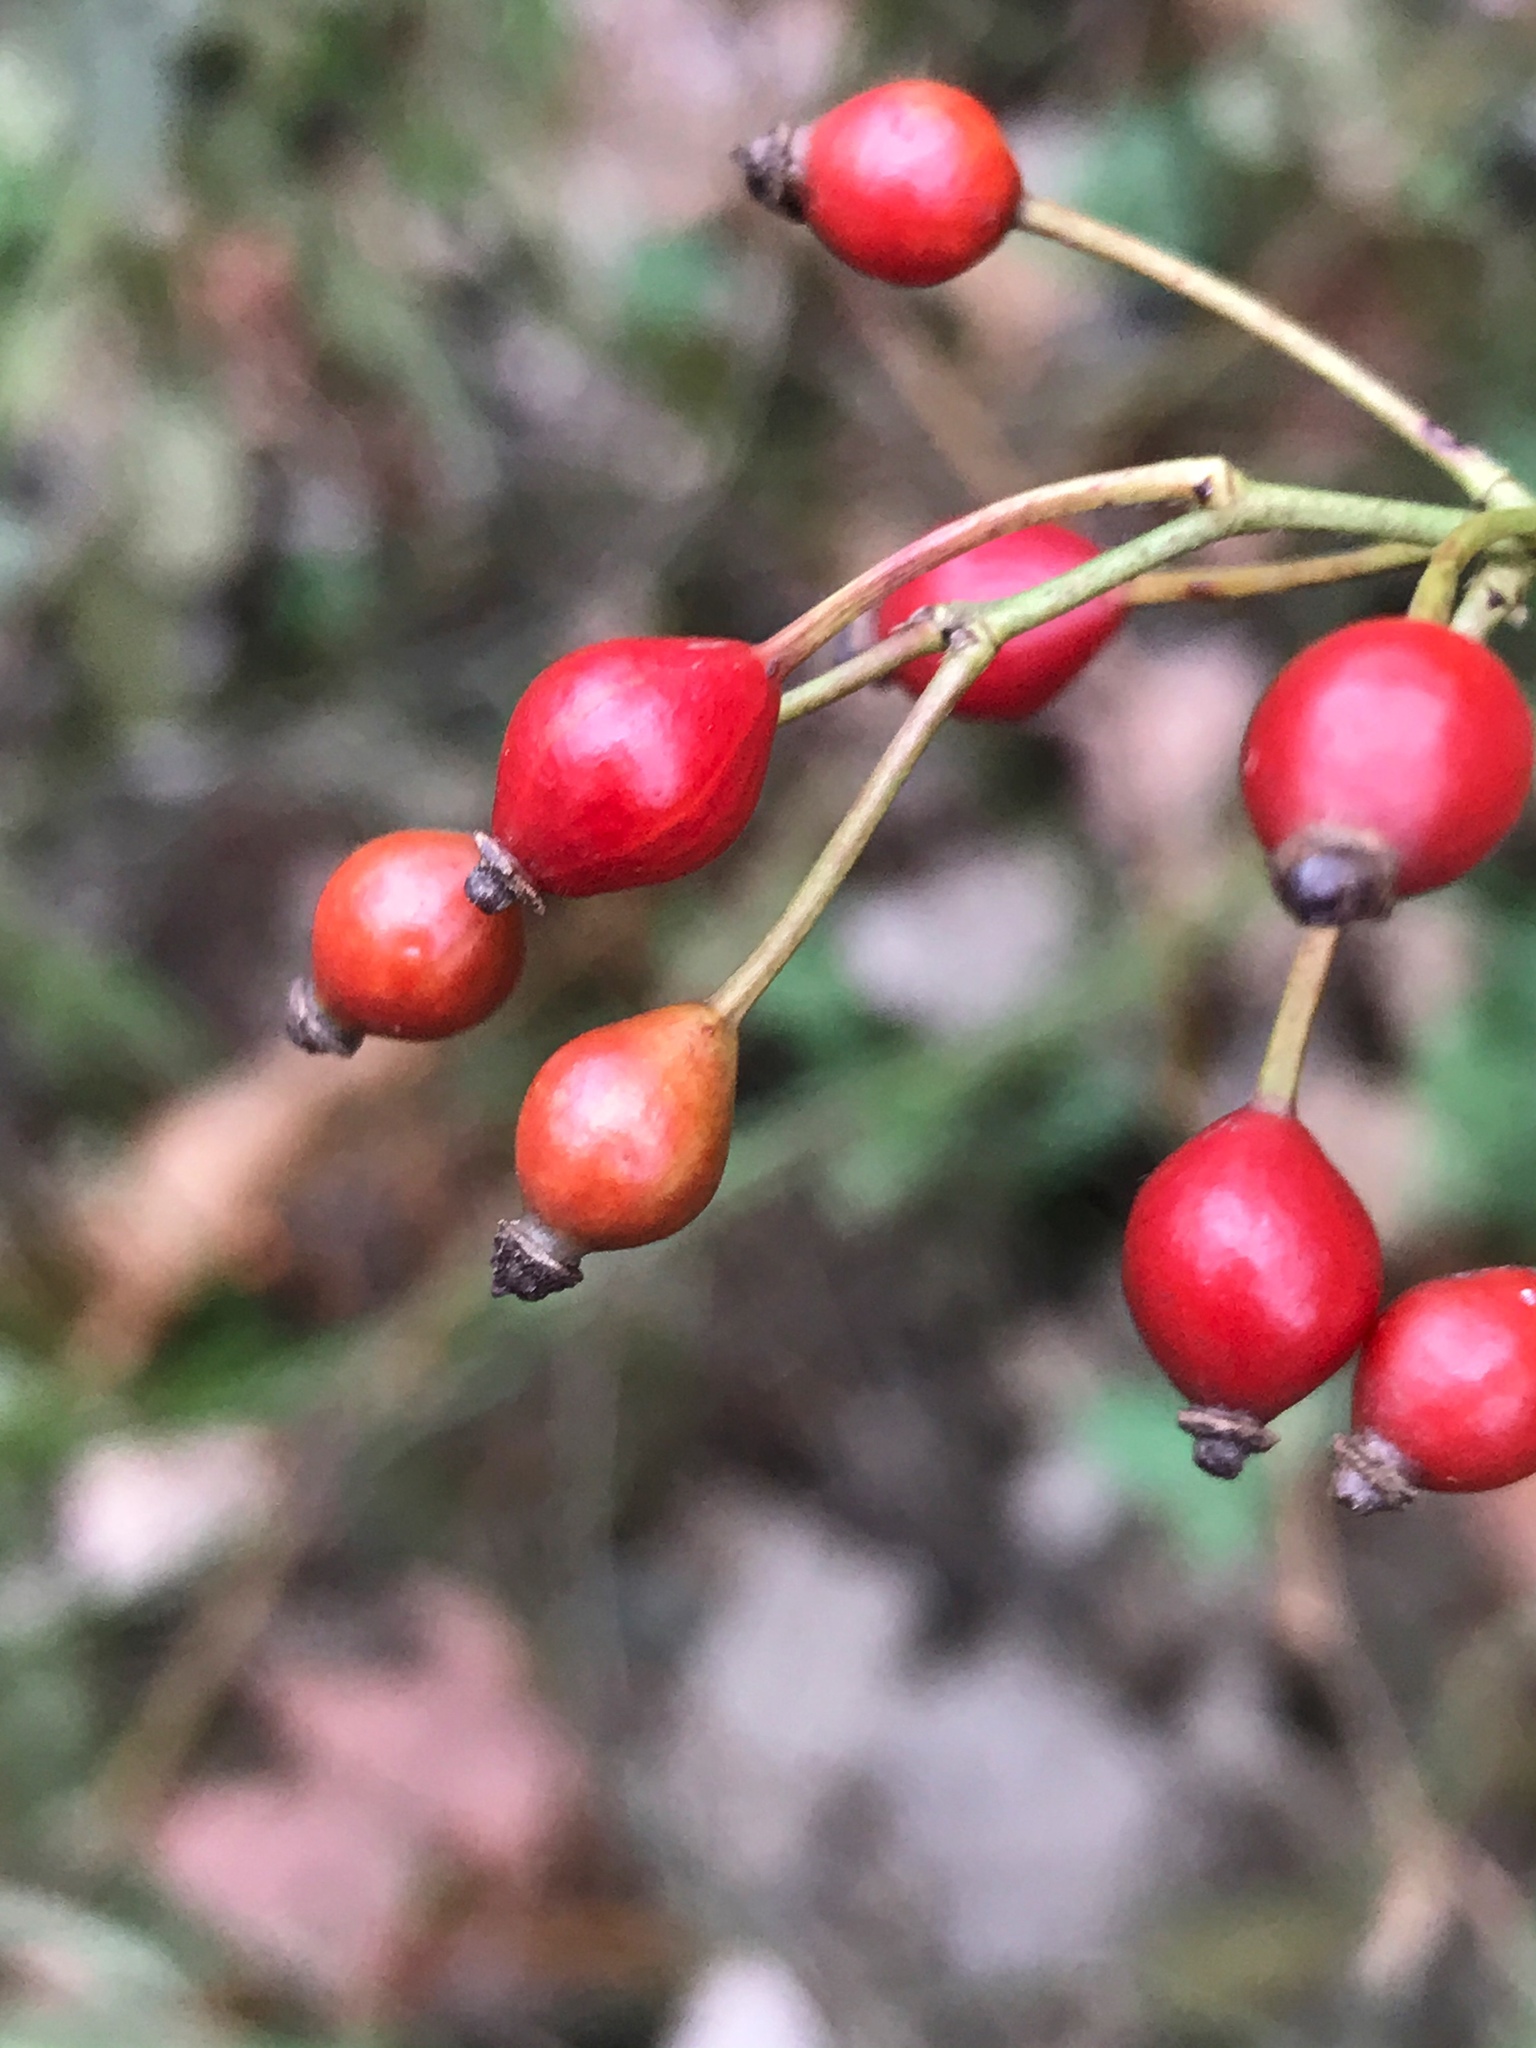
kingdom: Plantae
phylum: Tracheophyta
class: Magnoliopsida
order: Rosales
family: Rosaceae
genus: Rosa
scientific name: Rosa multiflora
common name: Multiflora rose
